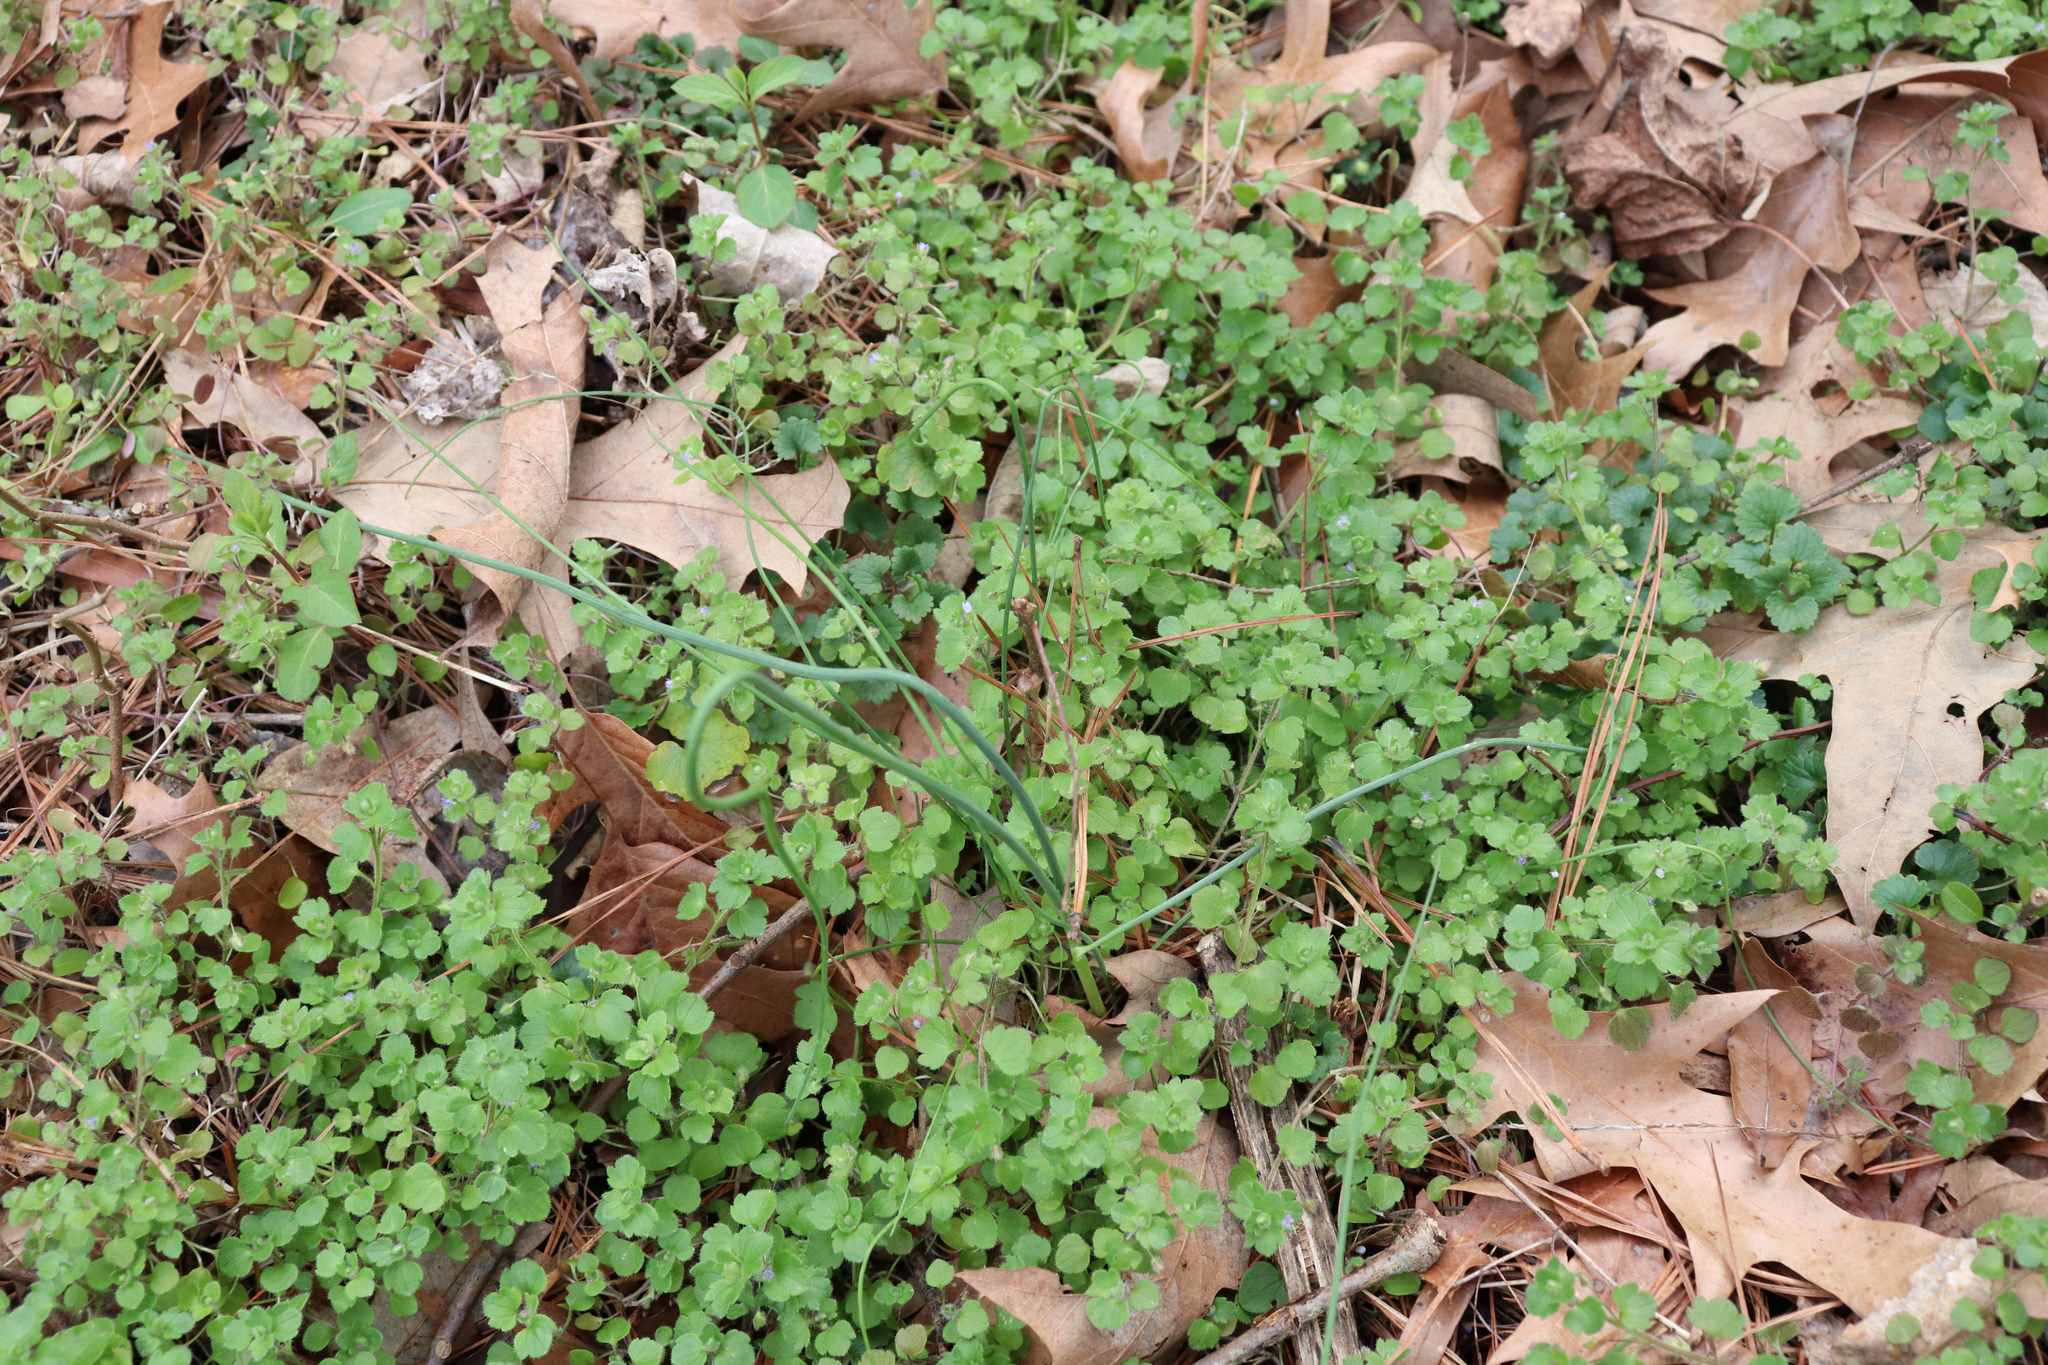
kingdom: Plantae
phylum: Tracheophyta
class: Liliopsida
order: Asparagales
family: Amaryllidaceae
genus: Allium
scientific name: Allium vineale
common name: Crow garlic
